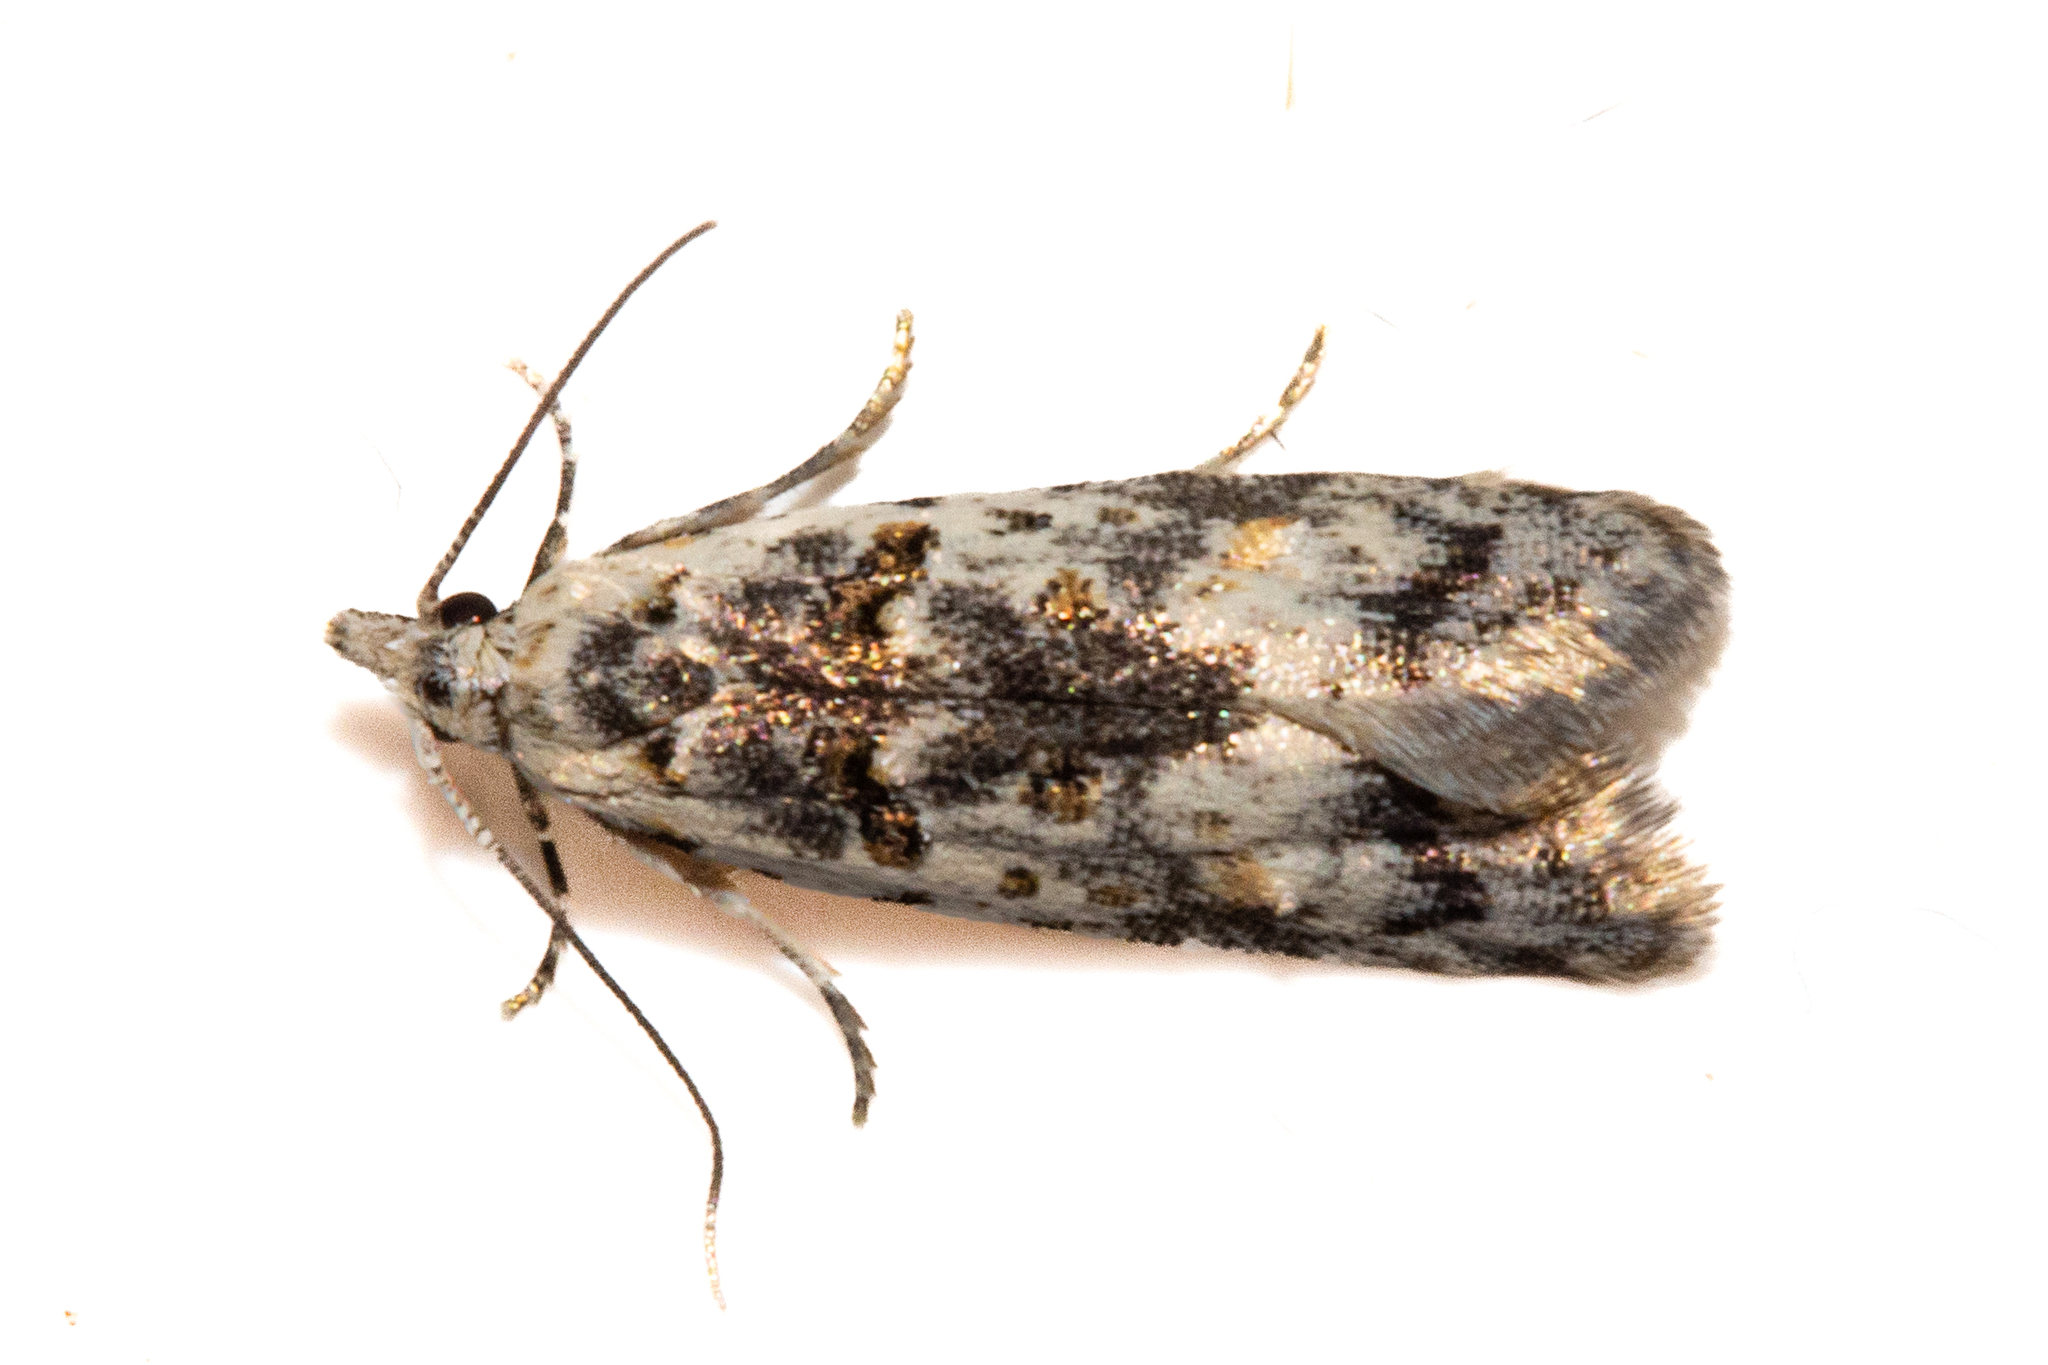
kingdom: Animalia
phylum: Arthropoda
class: Insecta
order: Lepidoptera
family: Carposinidae
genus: Carposina
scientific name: Carposina
